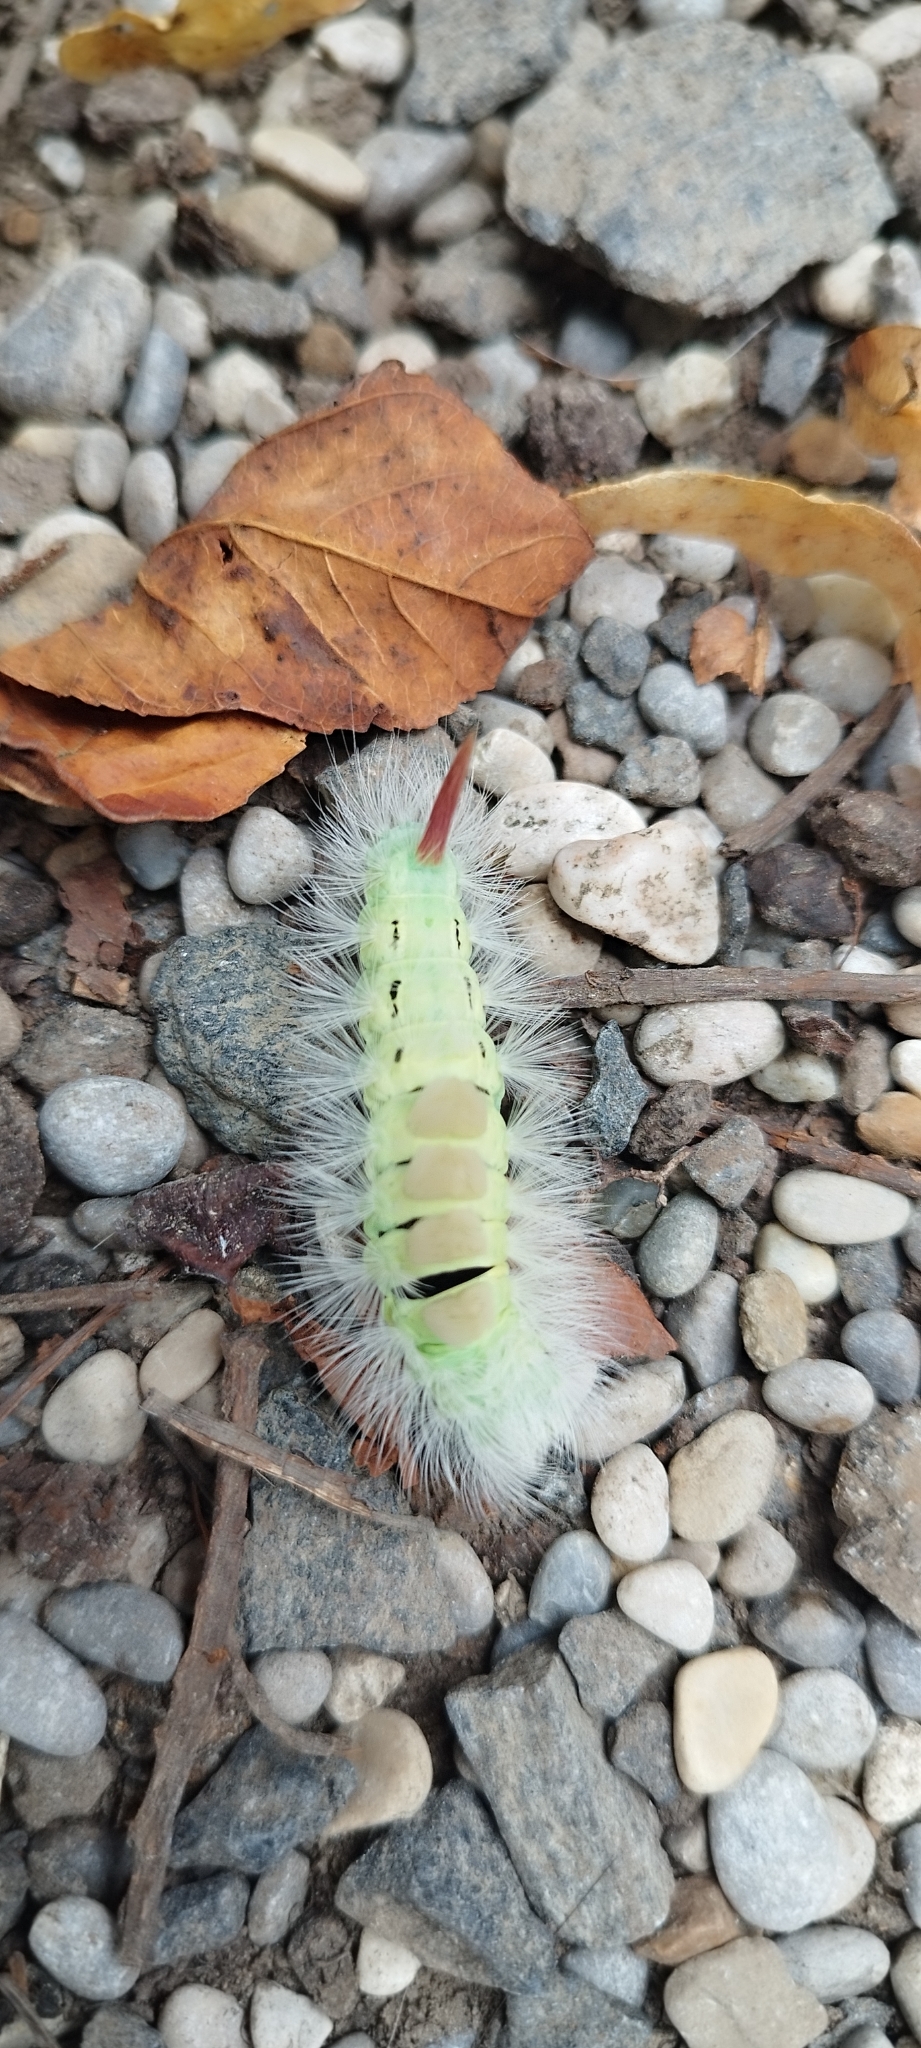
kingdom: Animalia
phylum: Arthropoda
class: Insecta
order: Lepidoptera
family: Erebidae
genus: Calliteara
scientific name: Calliteara pudibunda
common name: Pale tussock
